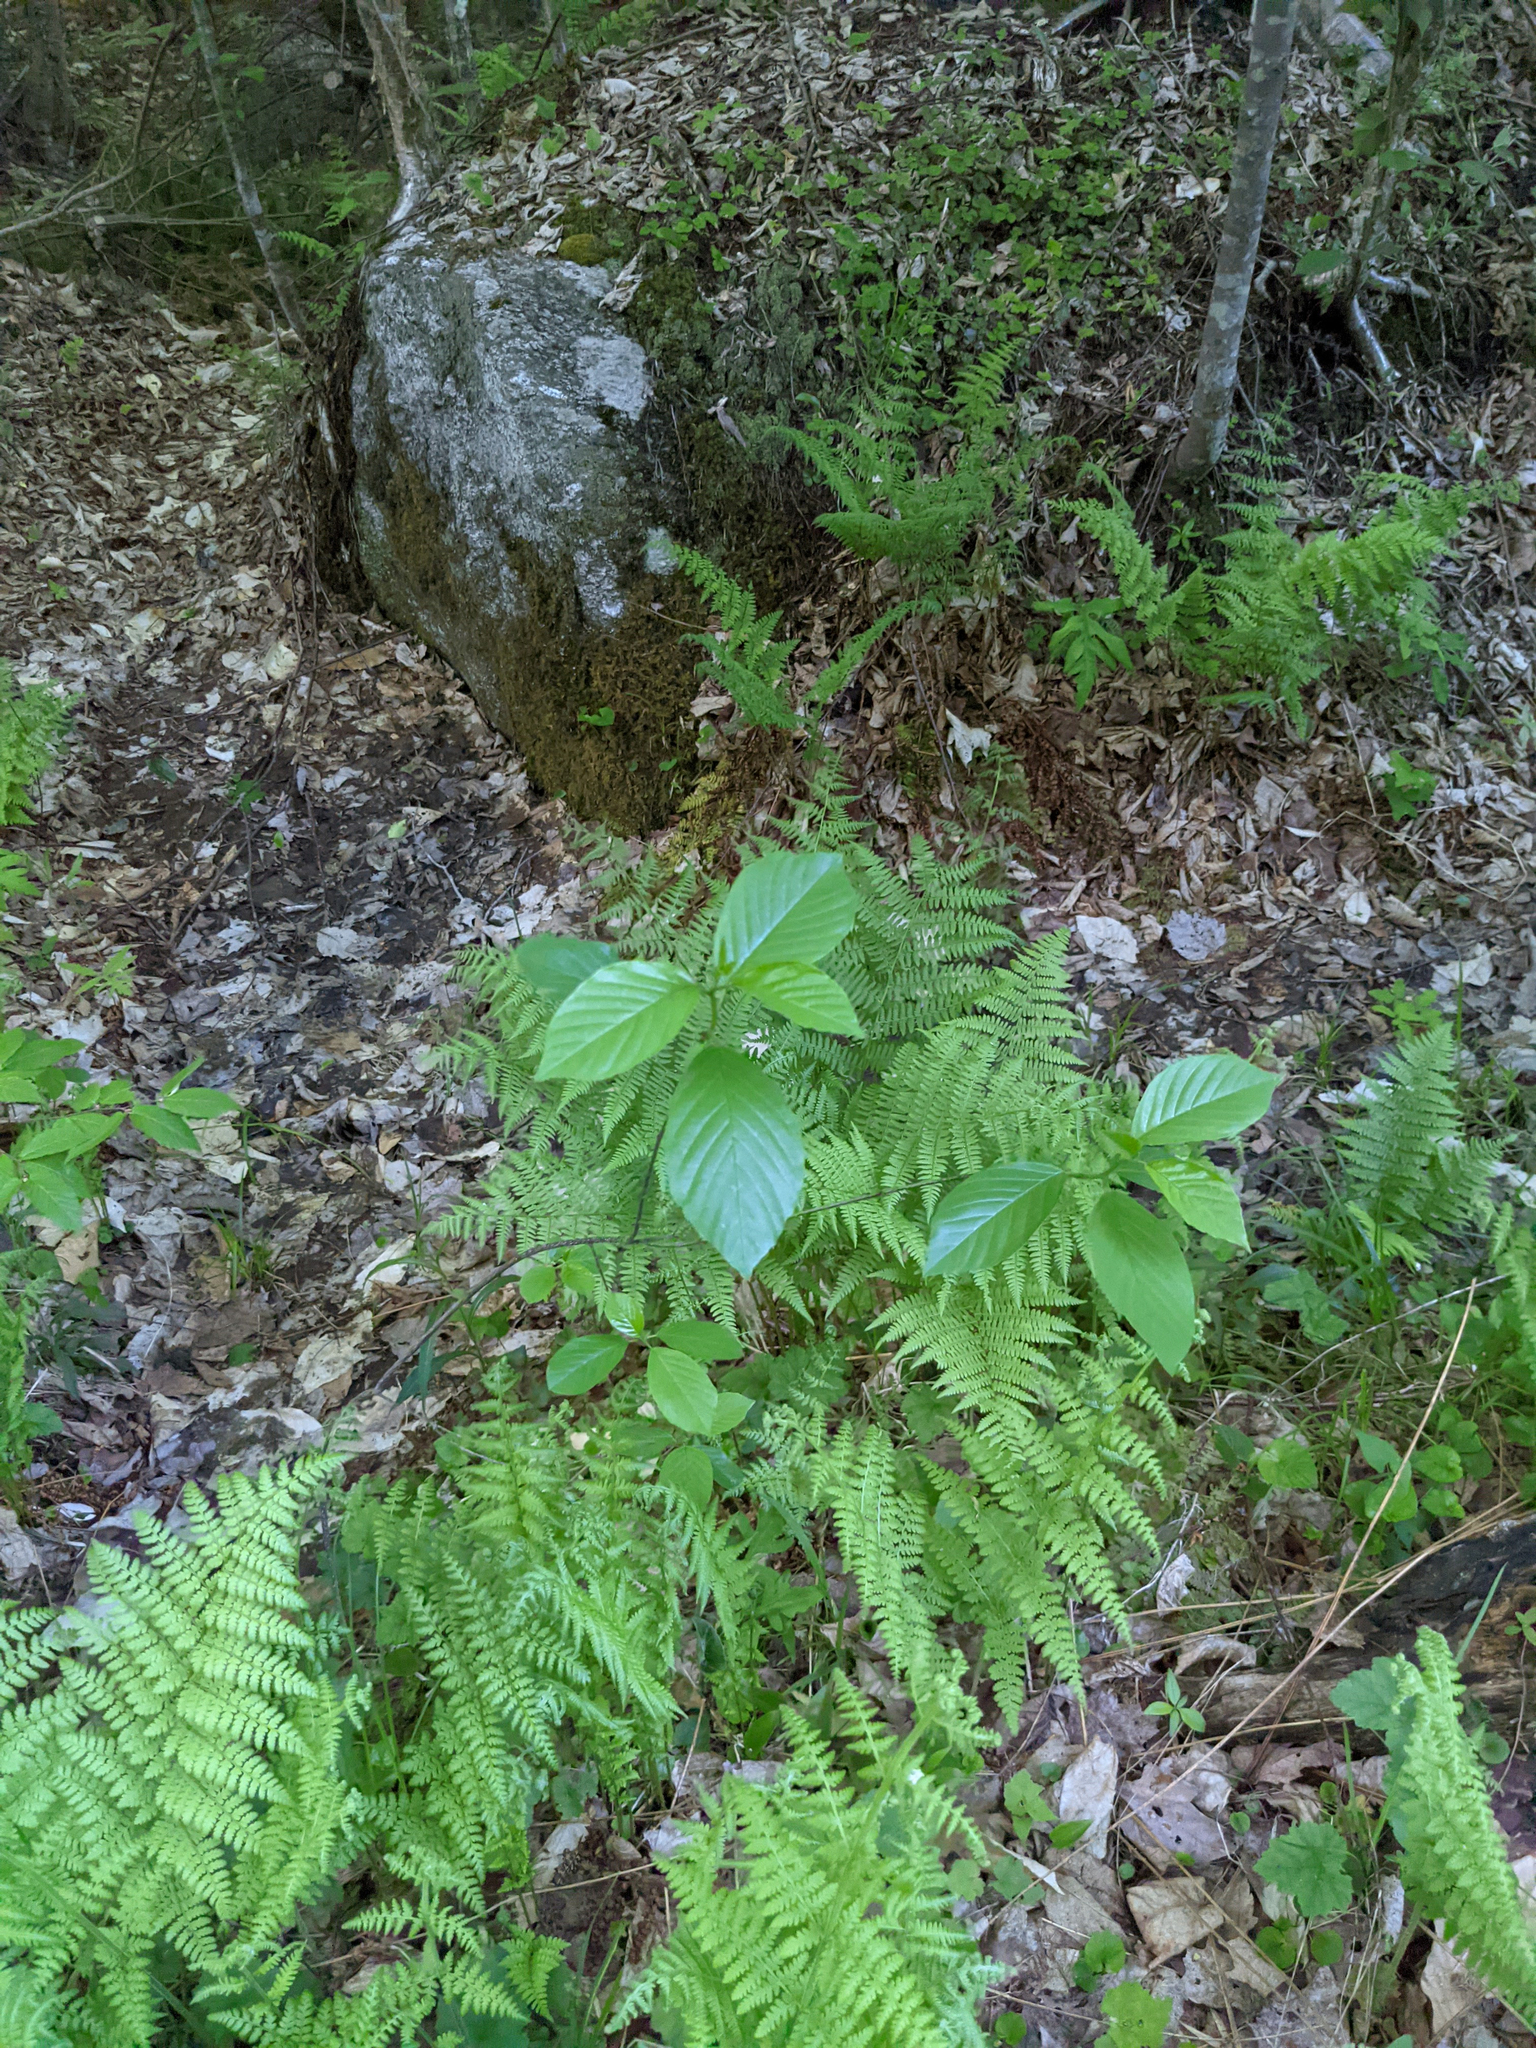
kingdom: Plantae
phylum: Tracheophyta
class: Magnoliopsida
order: Rosales
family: Rhamnaceae
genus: Frangula
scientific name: Frangula alnus
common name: Alder buckthorn
